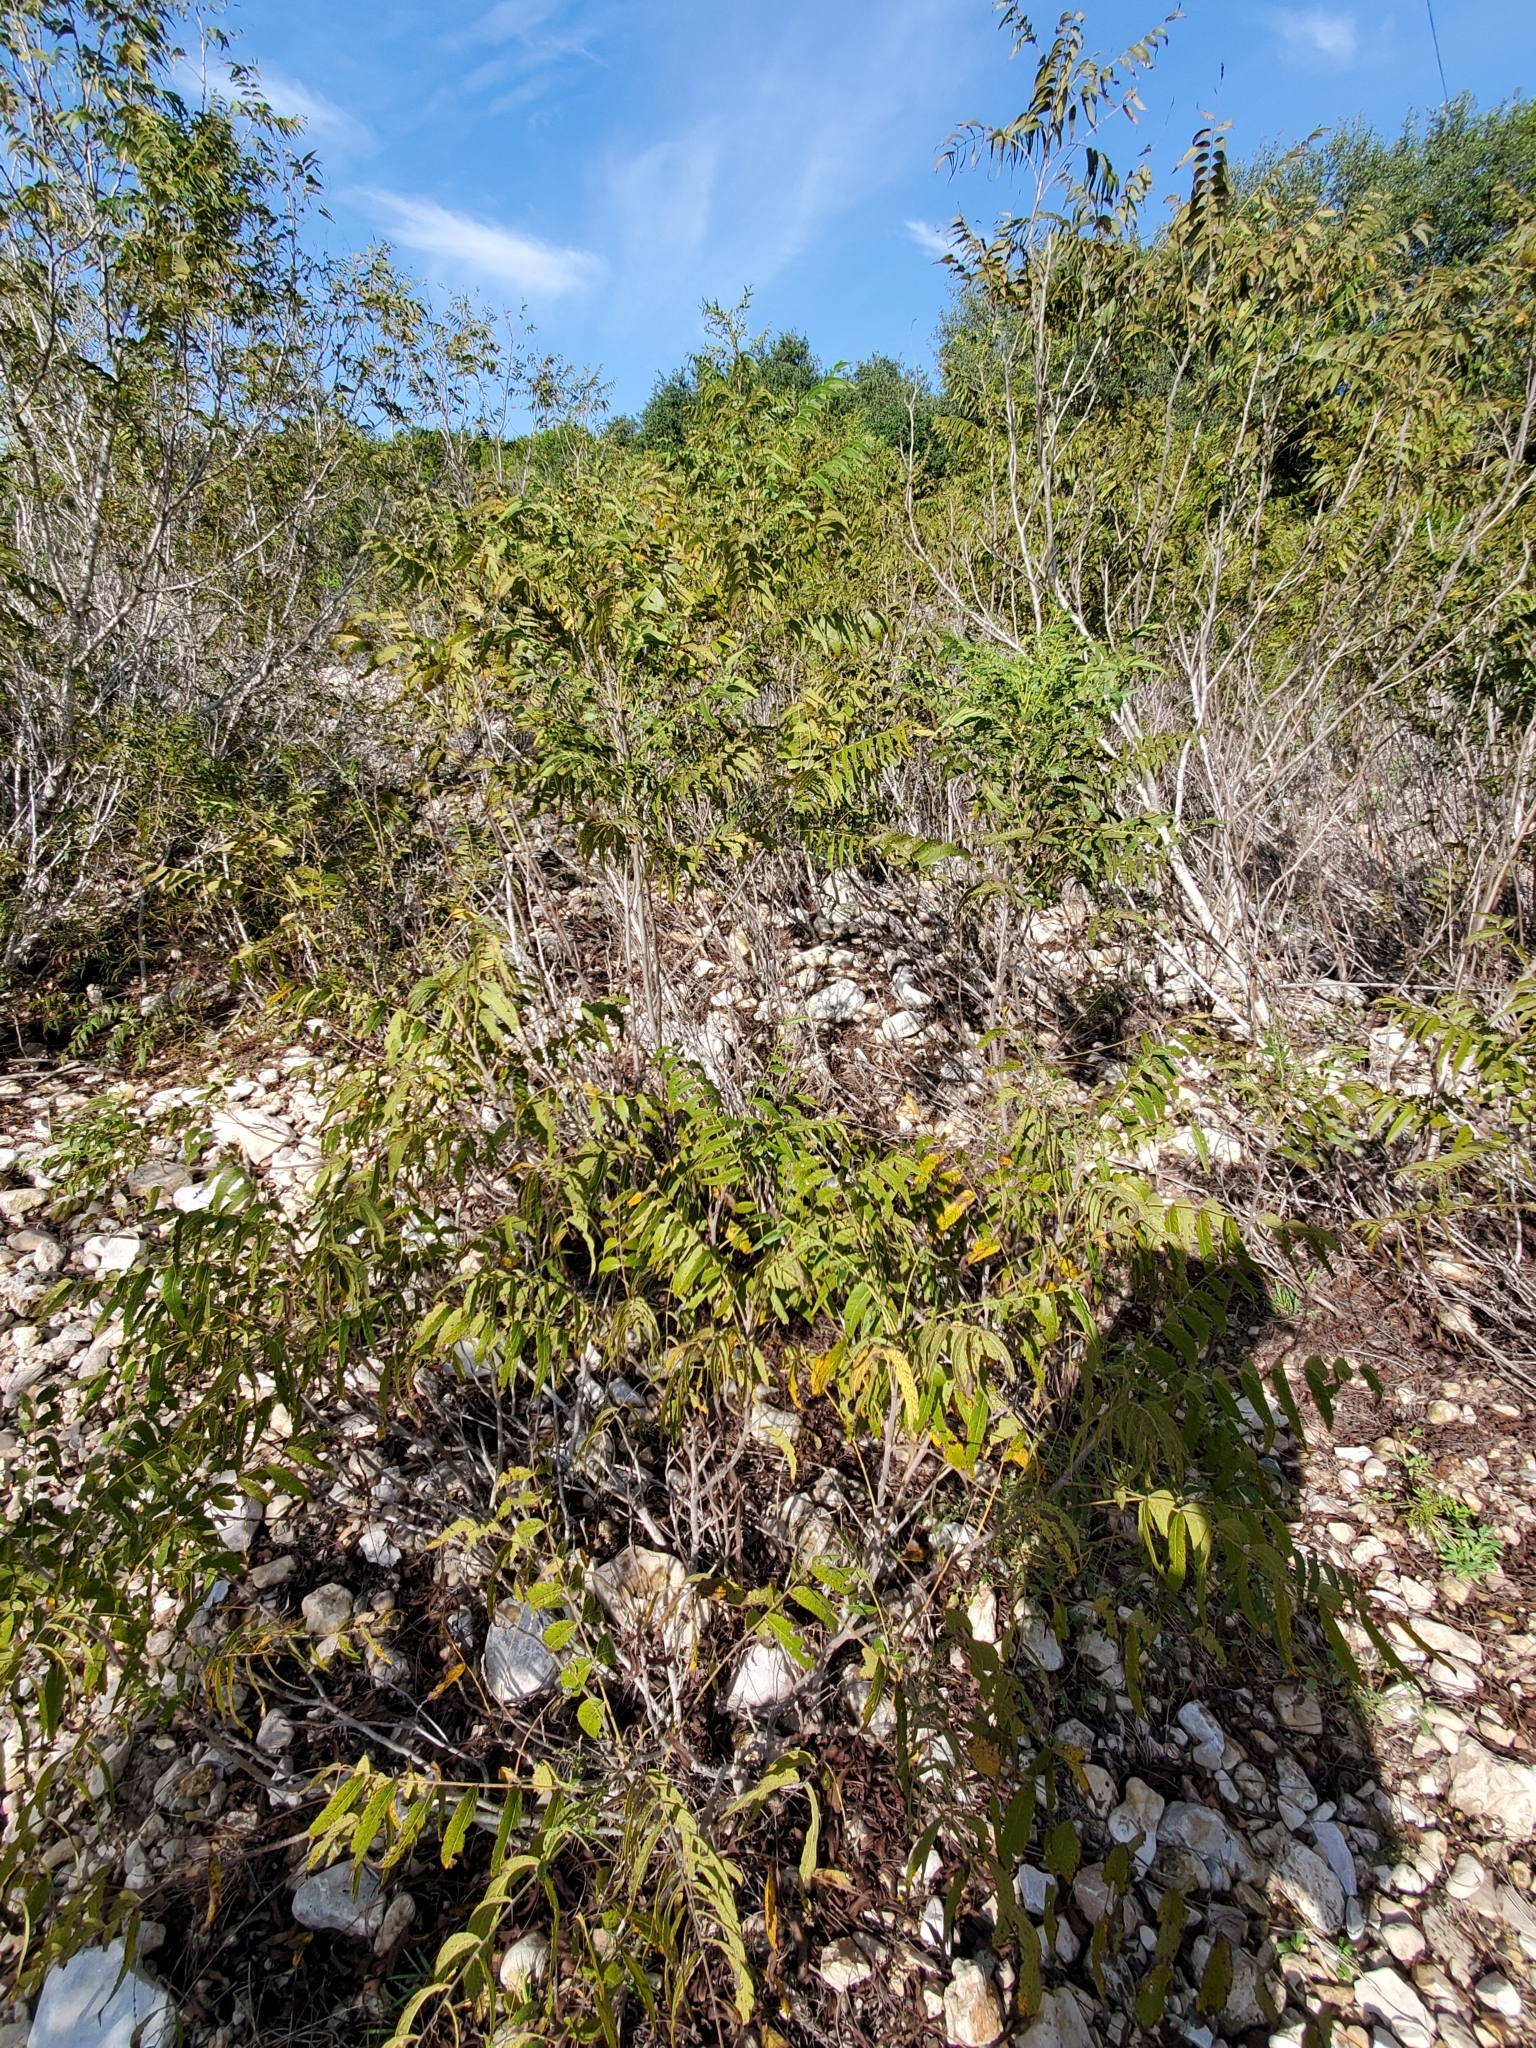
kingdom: Plantae
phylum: Tracheophyta
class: Magnoliopsida
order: Fagales
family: Juglandaceae
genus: Juglans
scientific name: Juglans microcarpa
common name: Texas walnut
